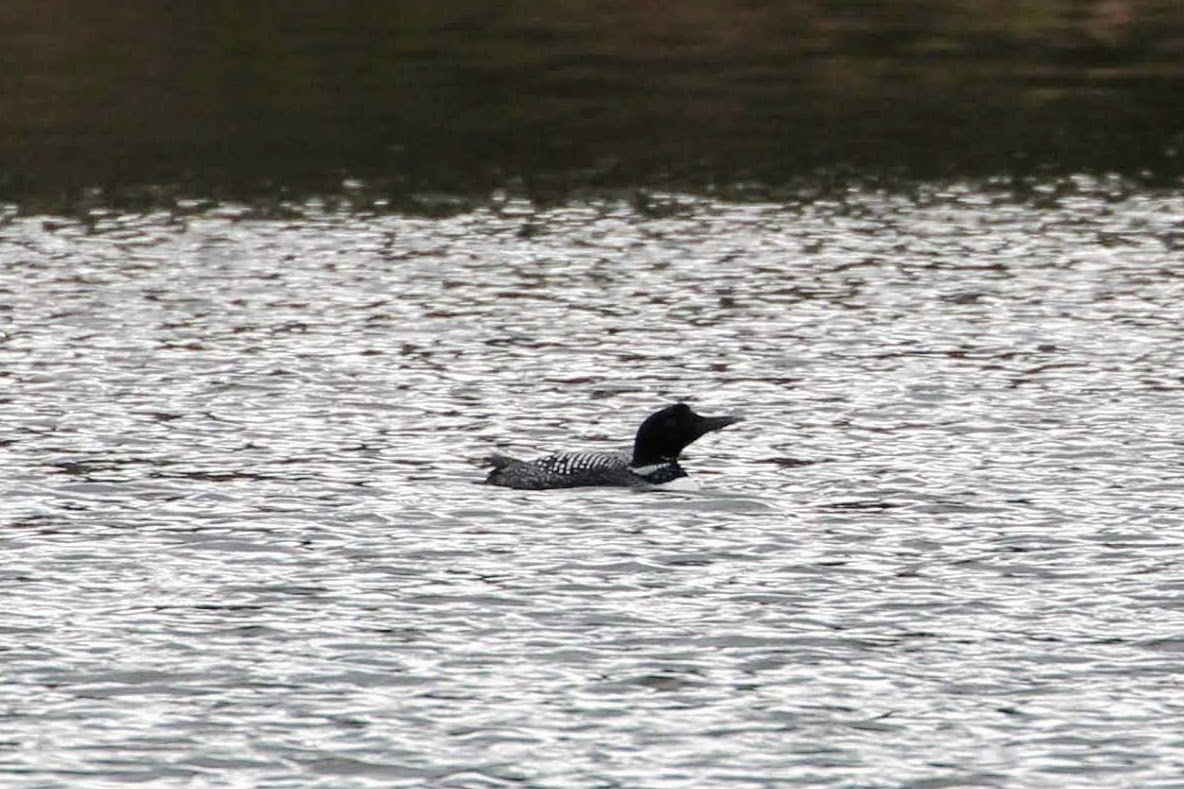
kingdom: Animalia
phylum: Chordata
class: Aves
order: Gaviiformes
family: Gaviidae
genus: Gavia
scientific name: Gavia immer
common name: Common loon
